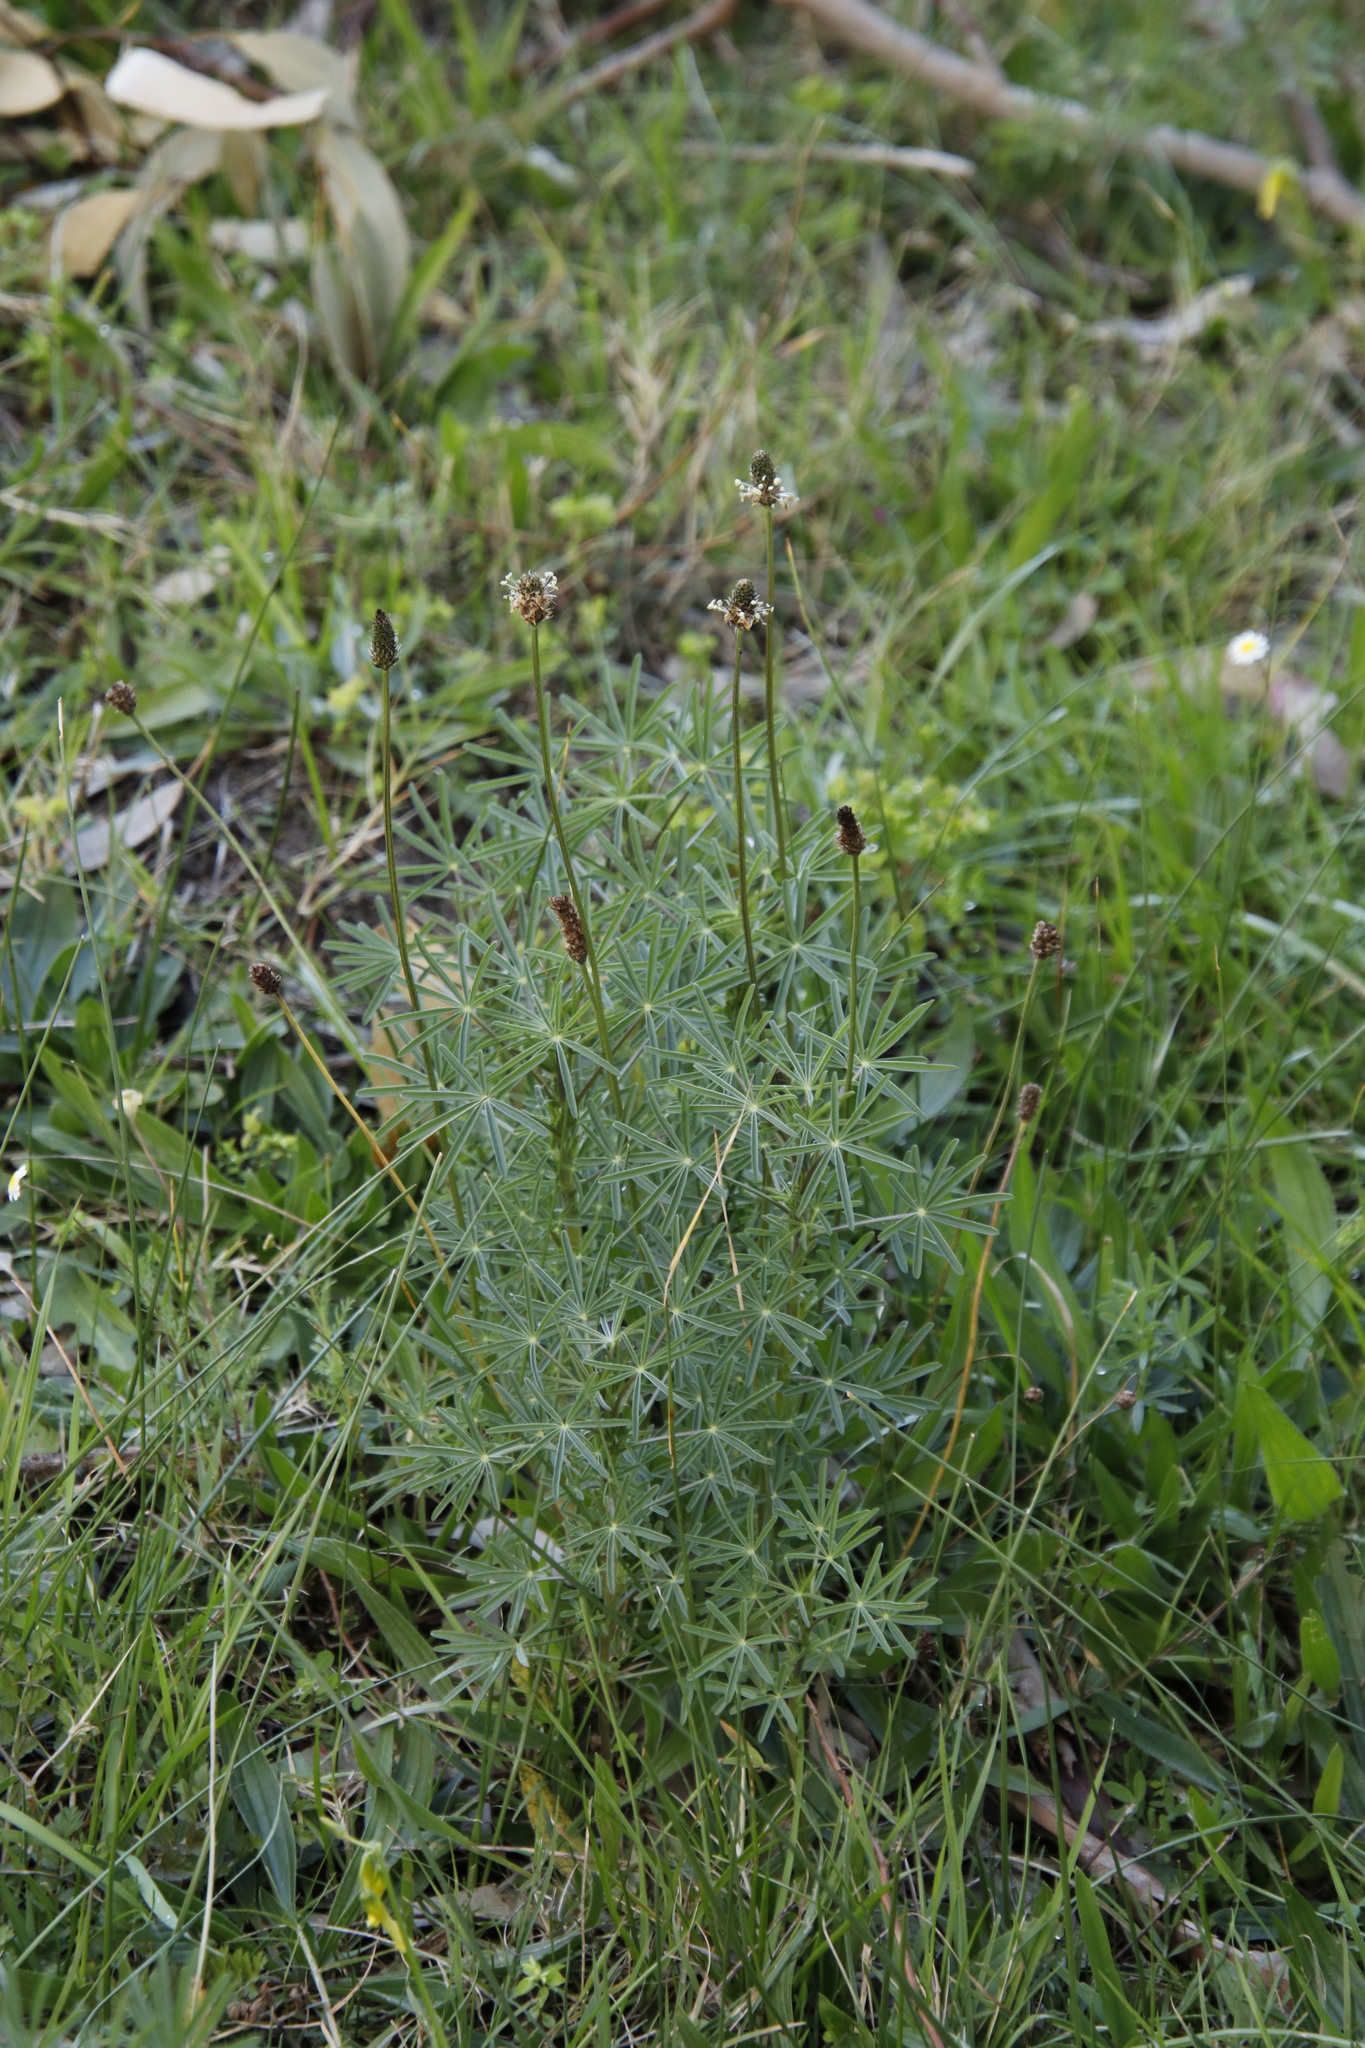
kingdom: Plantae
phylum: Tracheophyta
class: Magnoliopsida
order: Lamiales
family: Plantaginaceae
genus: Plantago
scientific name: Plantago lanceolata
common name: Ribwort plantain
